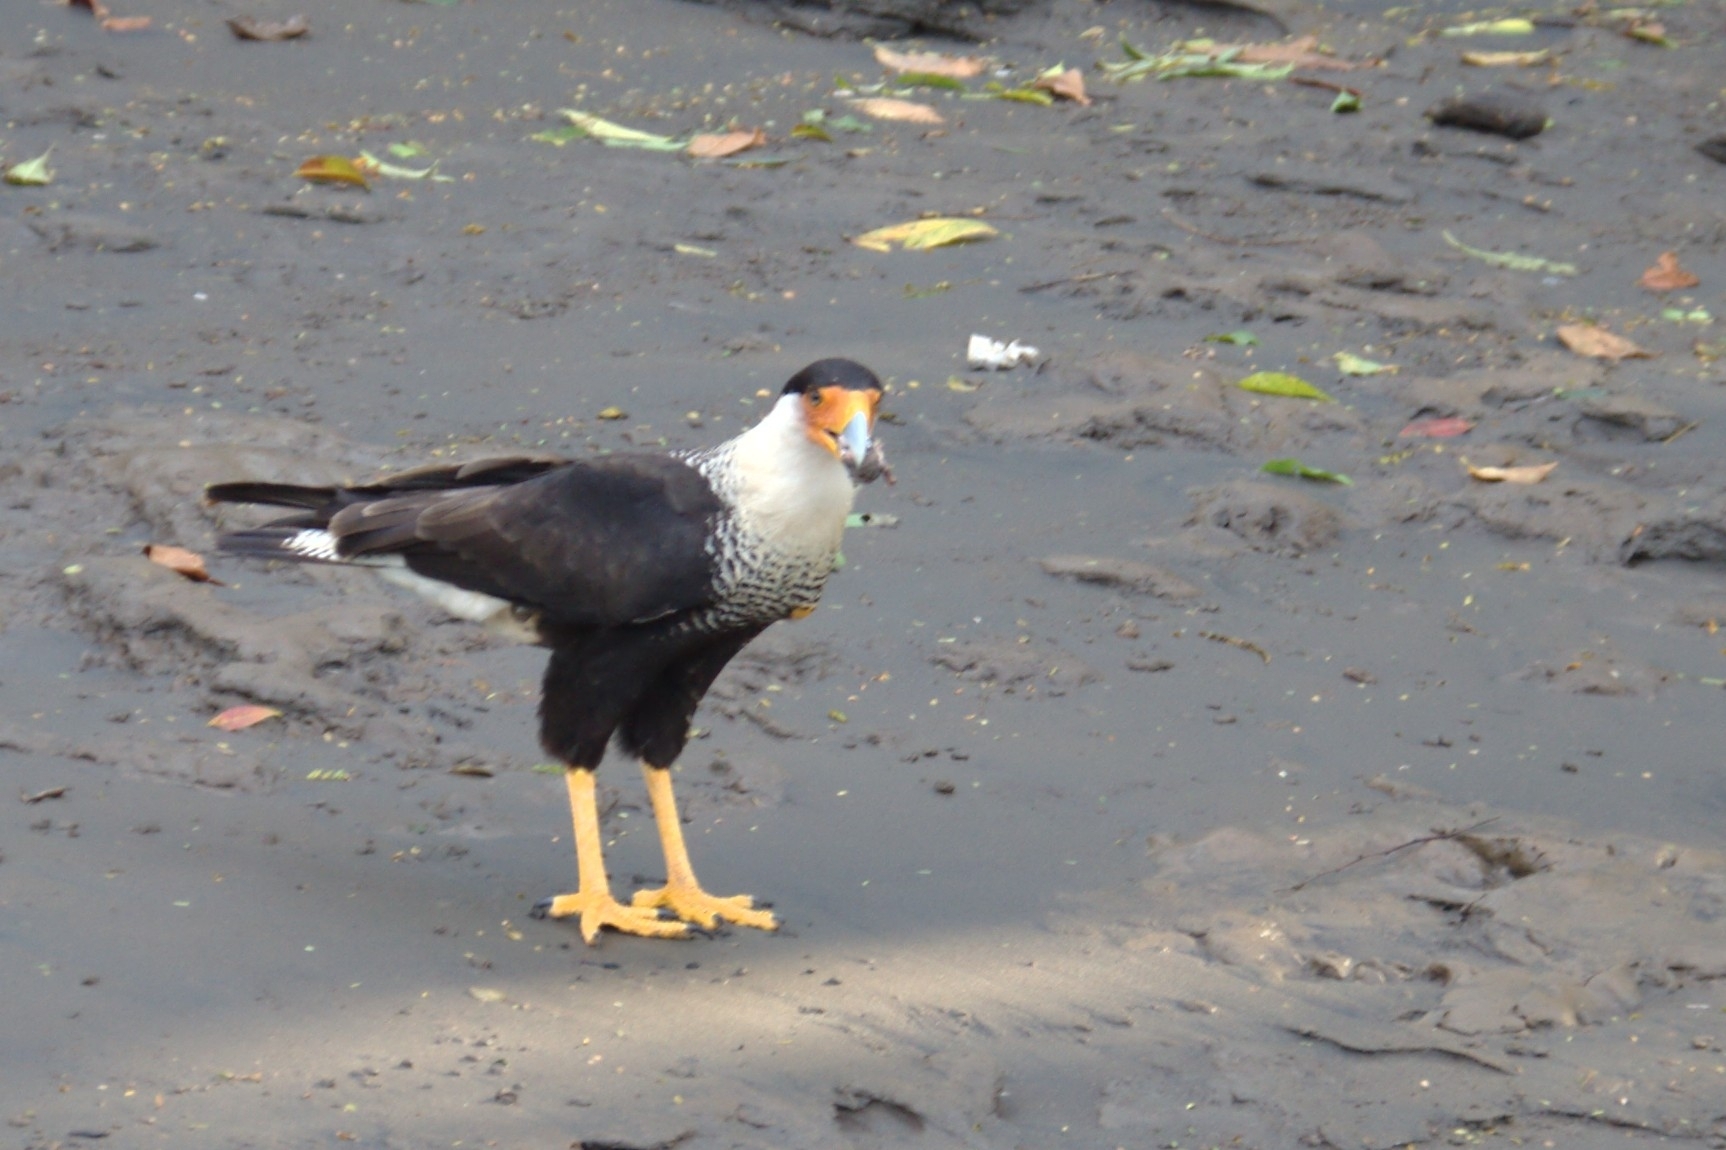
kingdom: Animalia
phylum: Chordata
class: Aves
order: Falconiformes
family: Falconidae
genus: Caracara
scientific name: Caracara plancus
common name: Southern caracara
